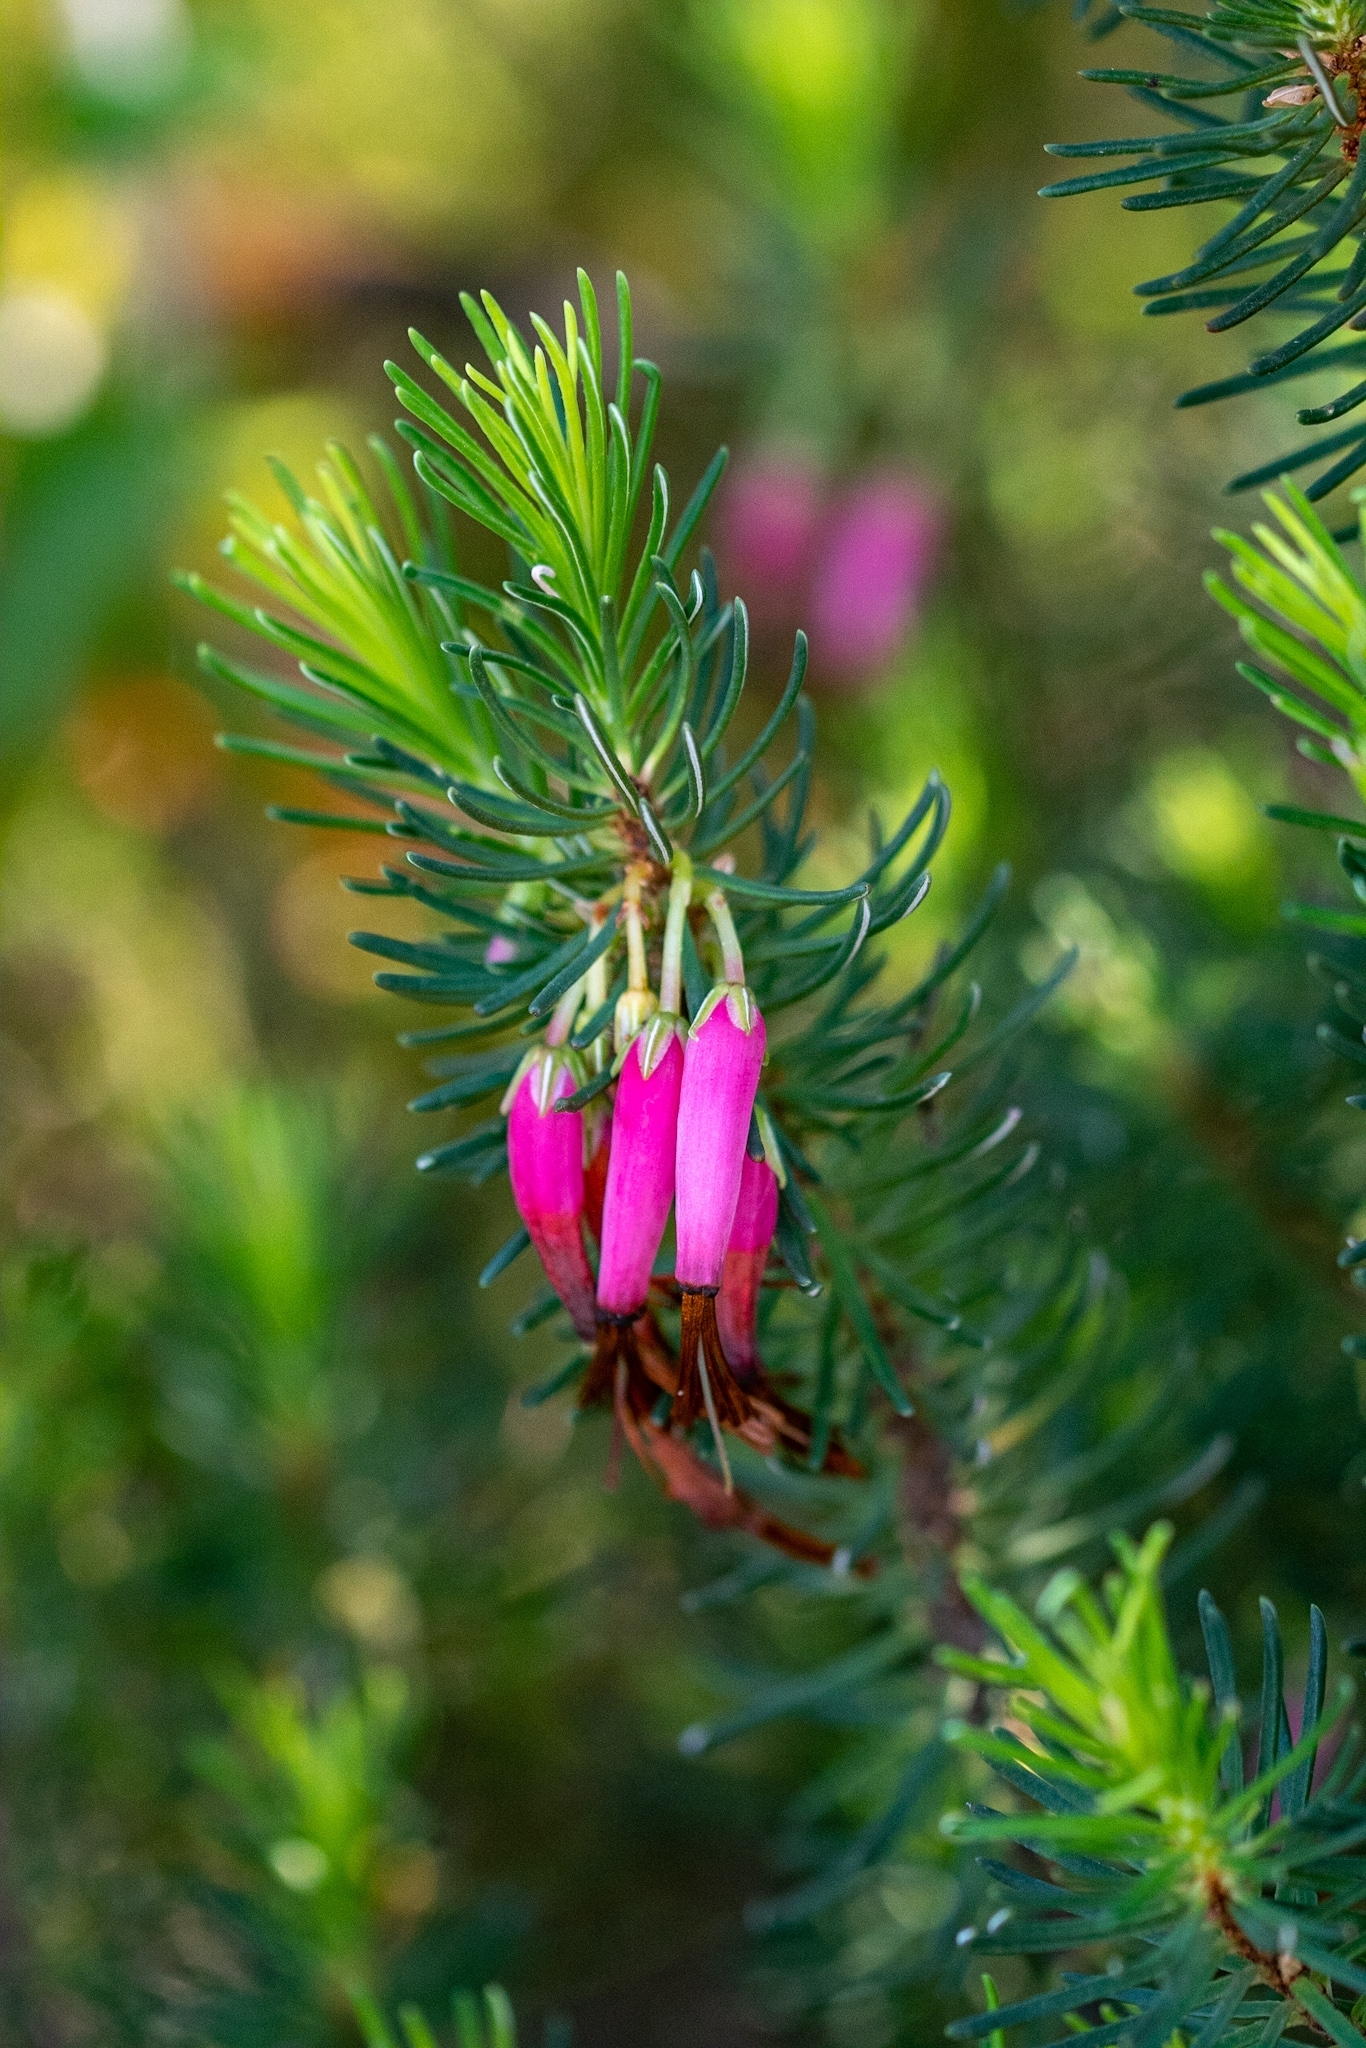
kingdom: Plantae
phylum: Tracheophyta
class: Magnoliopsida
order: Ericales
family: Ericaceae
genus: Erica
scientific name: Erica plukenetii
